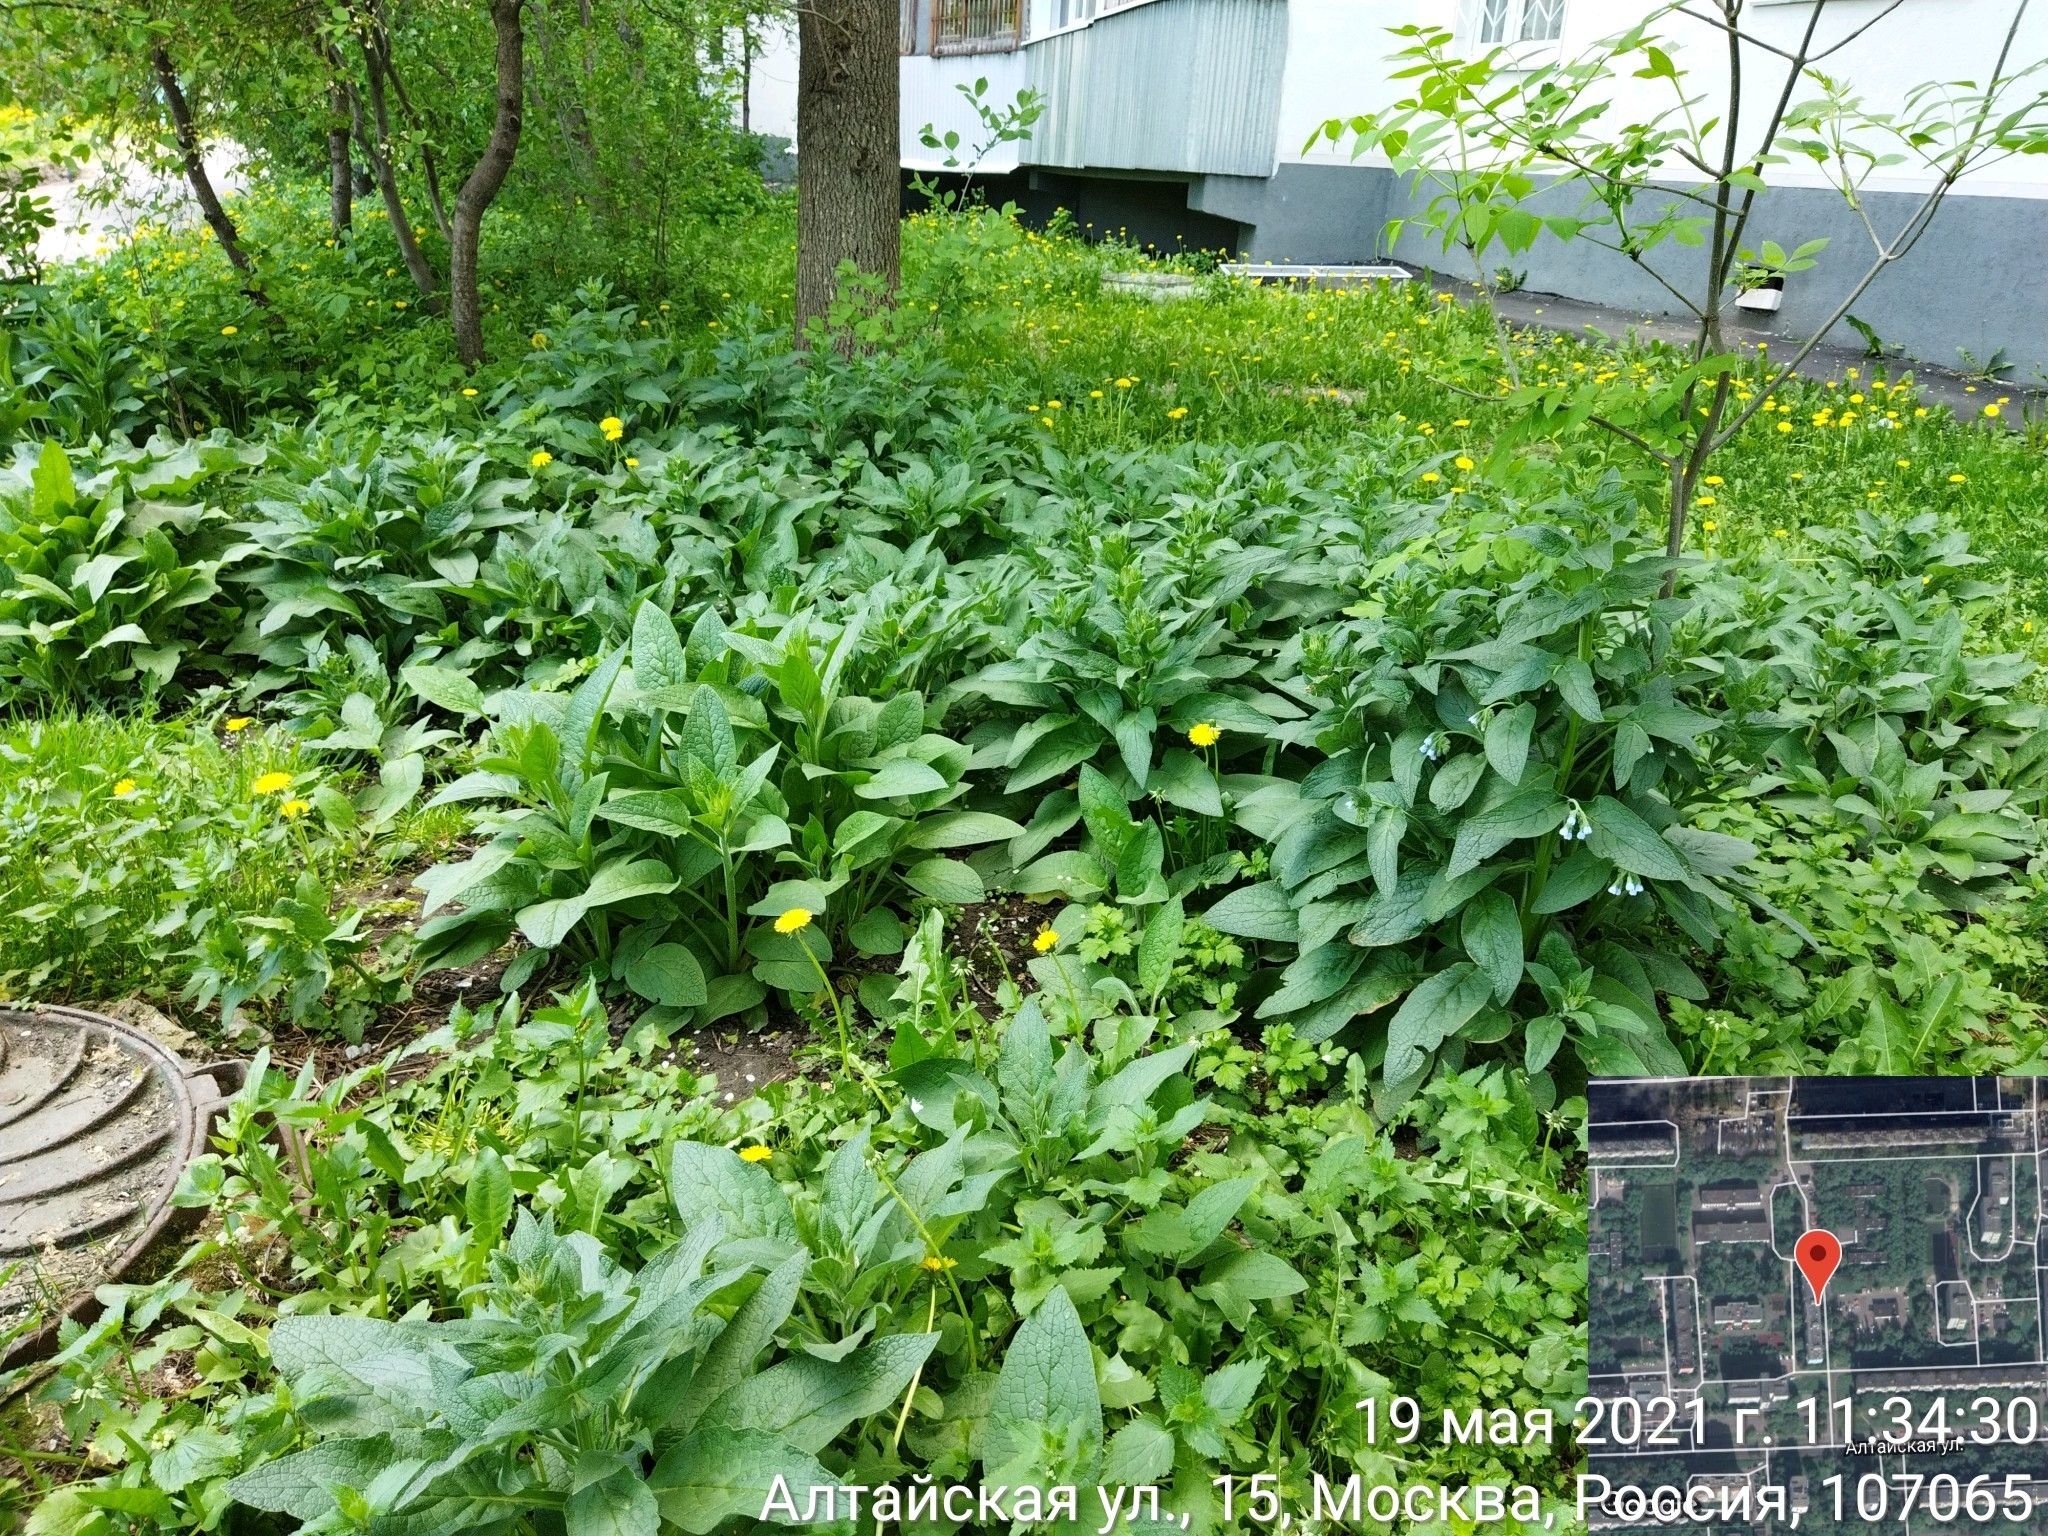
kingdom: Plantae
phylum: Tracheophyta
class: Magnoliopsida
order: Boraginales
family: Boraginaceae
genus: Symphytum
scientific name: Symphytum caucasicum
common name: Caucasian comfrey
